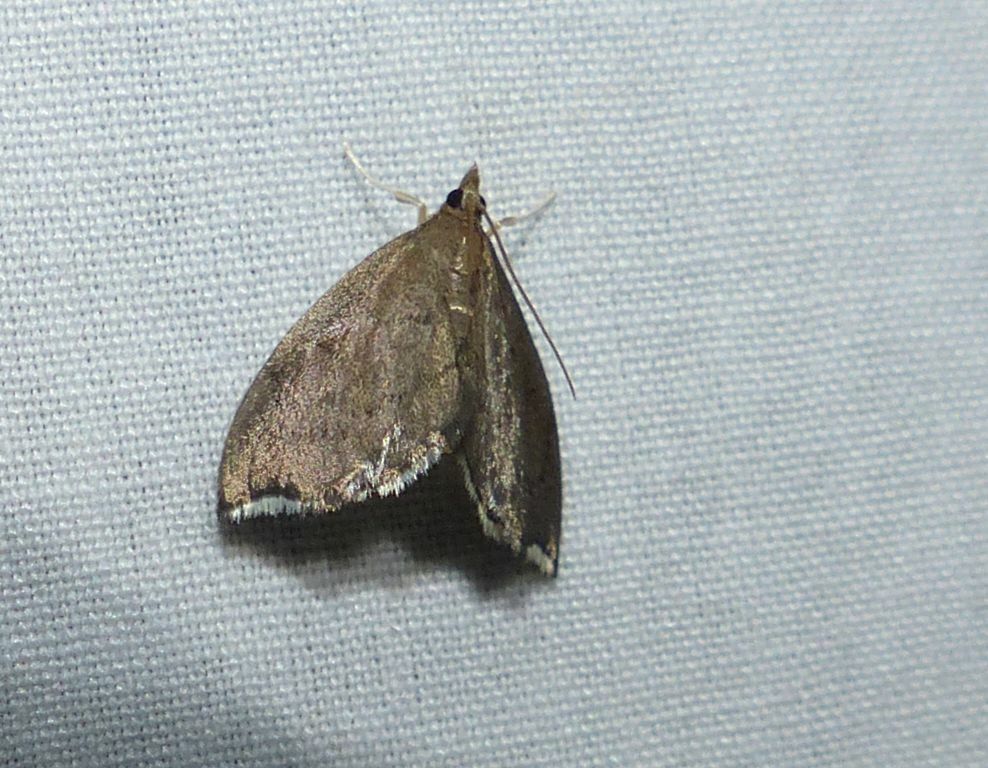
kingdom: Animalia
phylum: Arthropoda
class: Insecta
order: Lepidoptera
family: Crambidae
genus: Perispasta
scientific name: Perispasta caeculalis
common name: Titian peale's moth
